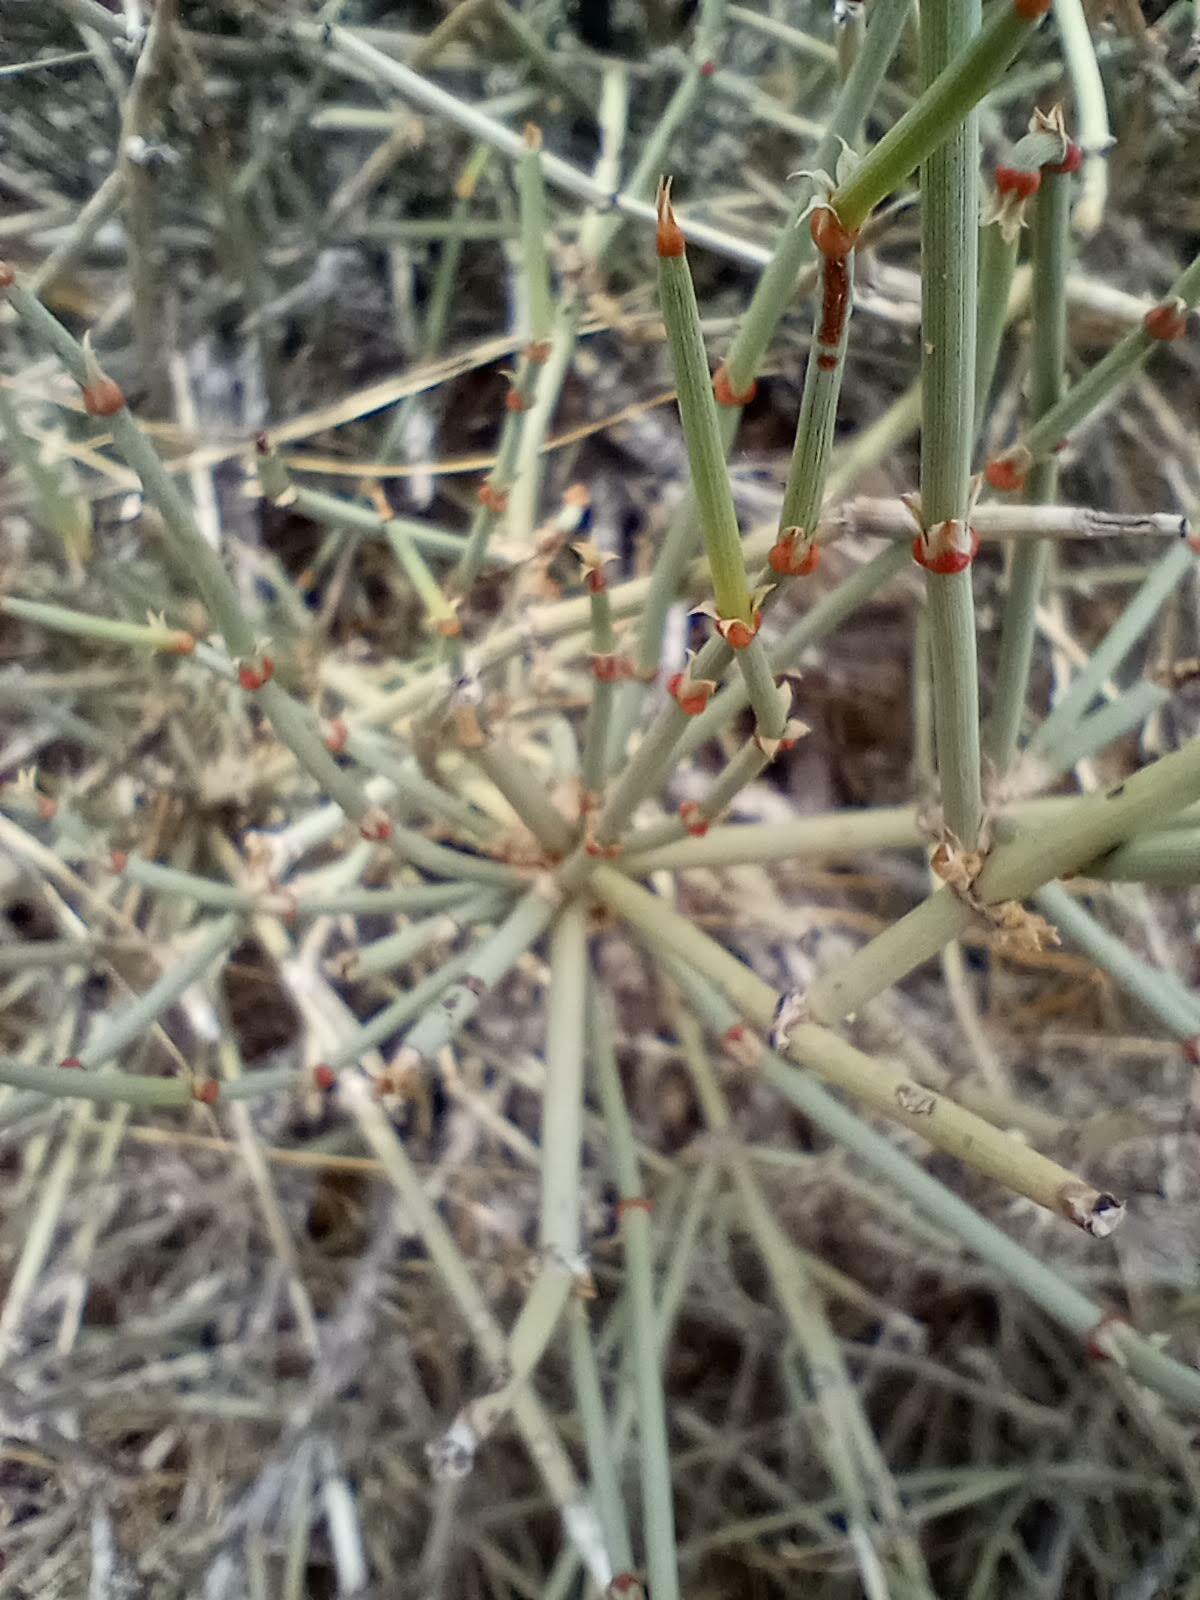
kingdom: Plantae
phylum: Tracheophyta
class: Gnetopsida
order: Ephedrales
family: Ephedraceae
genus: Ephedra
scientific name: Ephedra torreyana
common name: Torrey ephedra
